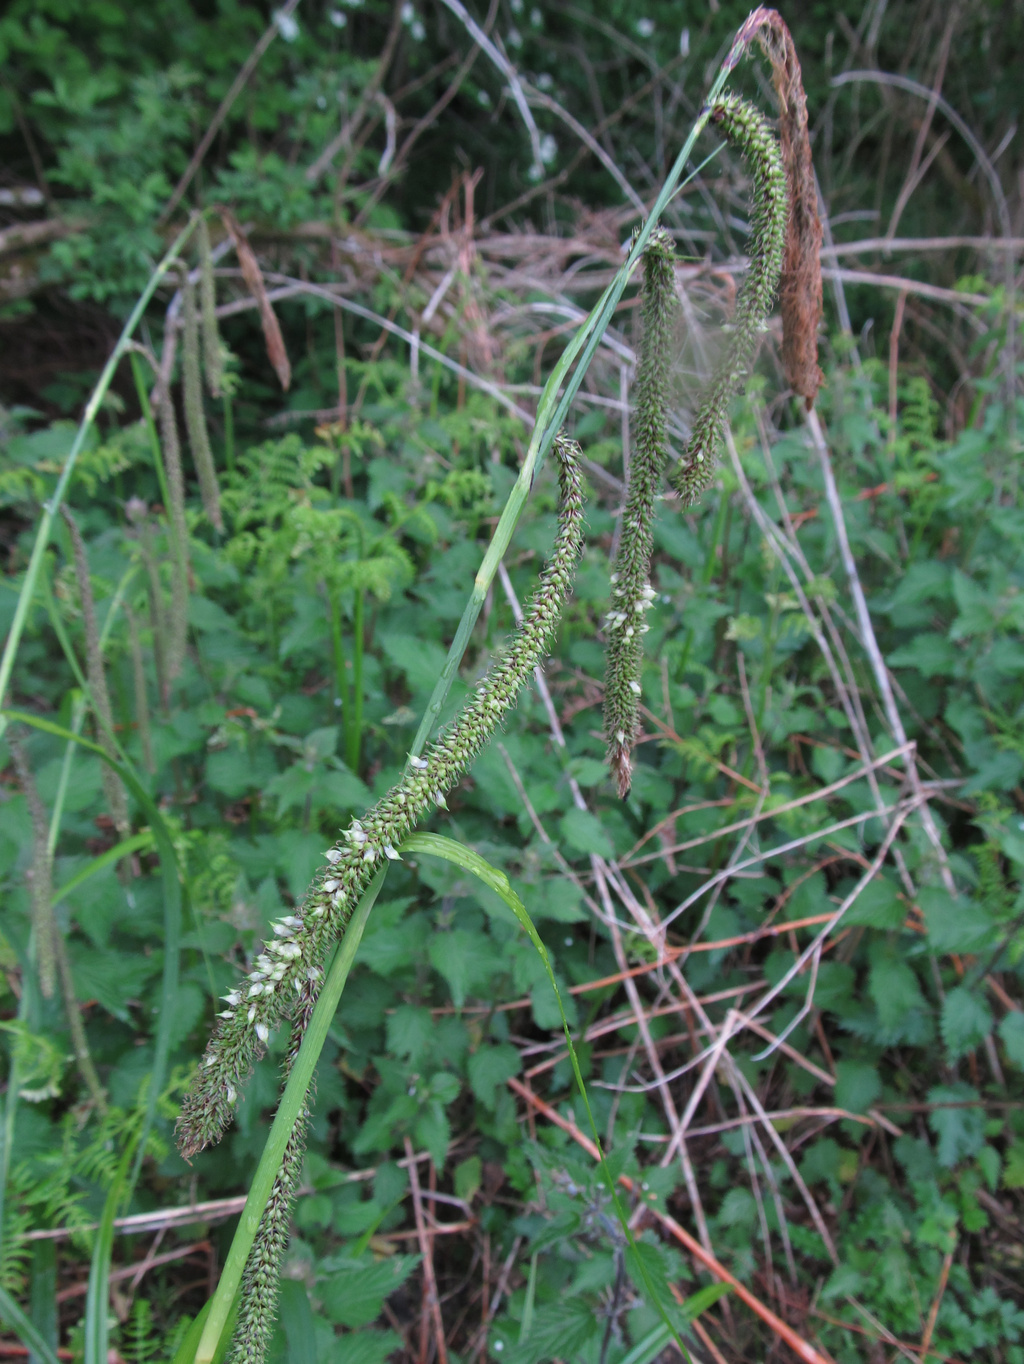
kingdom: Animalia
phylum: Arthropoda
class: Insecta
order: Diptera
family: Cecidomyiidae
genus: Wachtliella
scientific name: Wachtliella caricis
